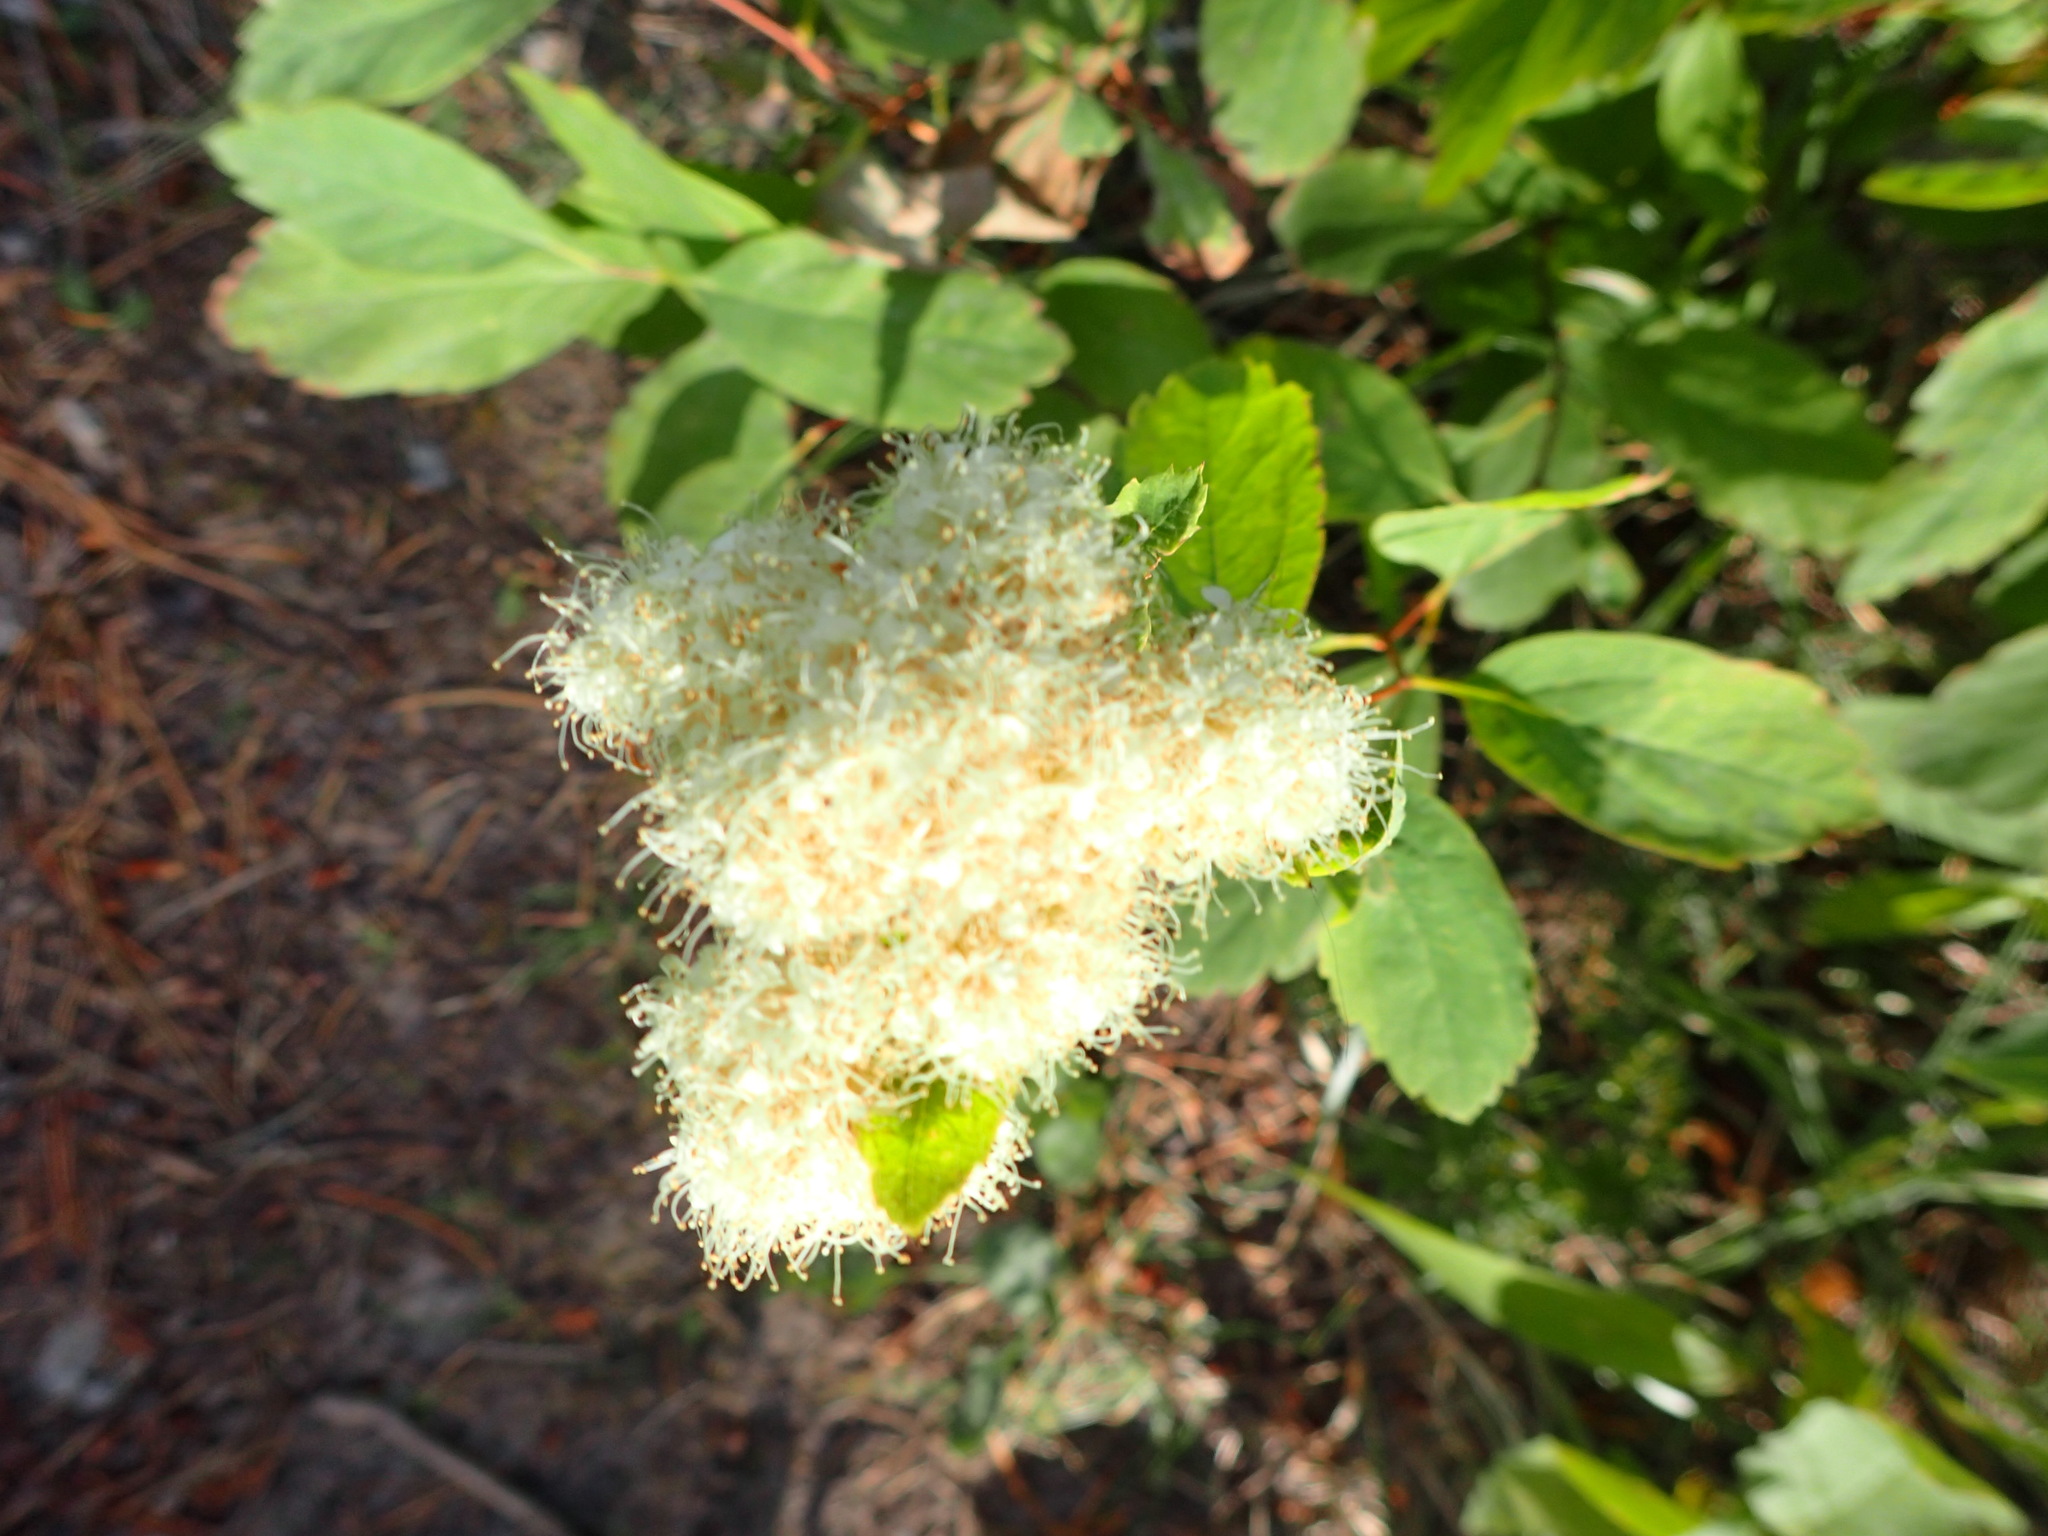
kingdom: Plantae
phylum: Tracheophyta
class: Magnoliopsida
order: Rosales
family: Rosaceae
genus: Spiraea
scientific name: Spiraea lucida
